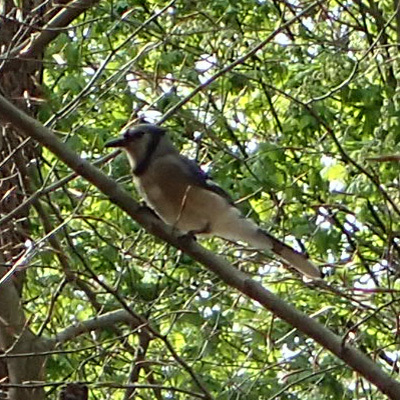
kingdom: Animalia
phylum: Chordata
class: Aves
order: Passeriformes
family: Corvidae
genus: Cyanocitta
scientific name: Cyanocitta cristata
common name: Blue jay
